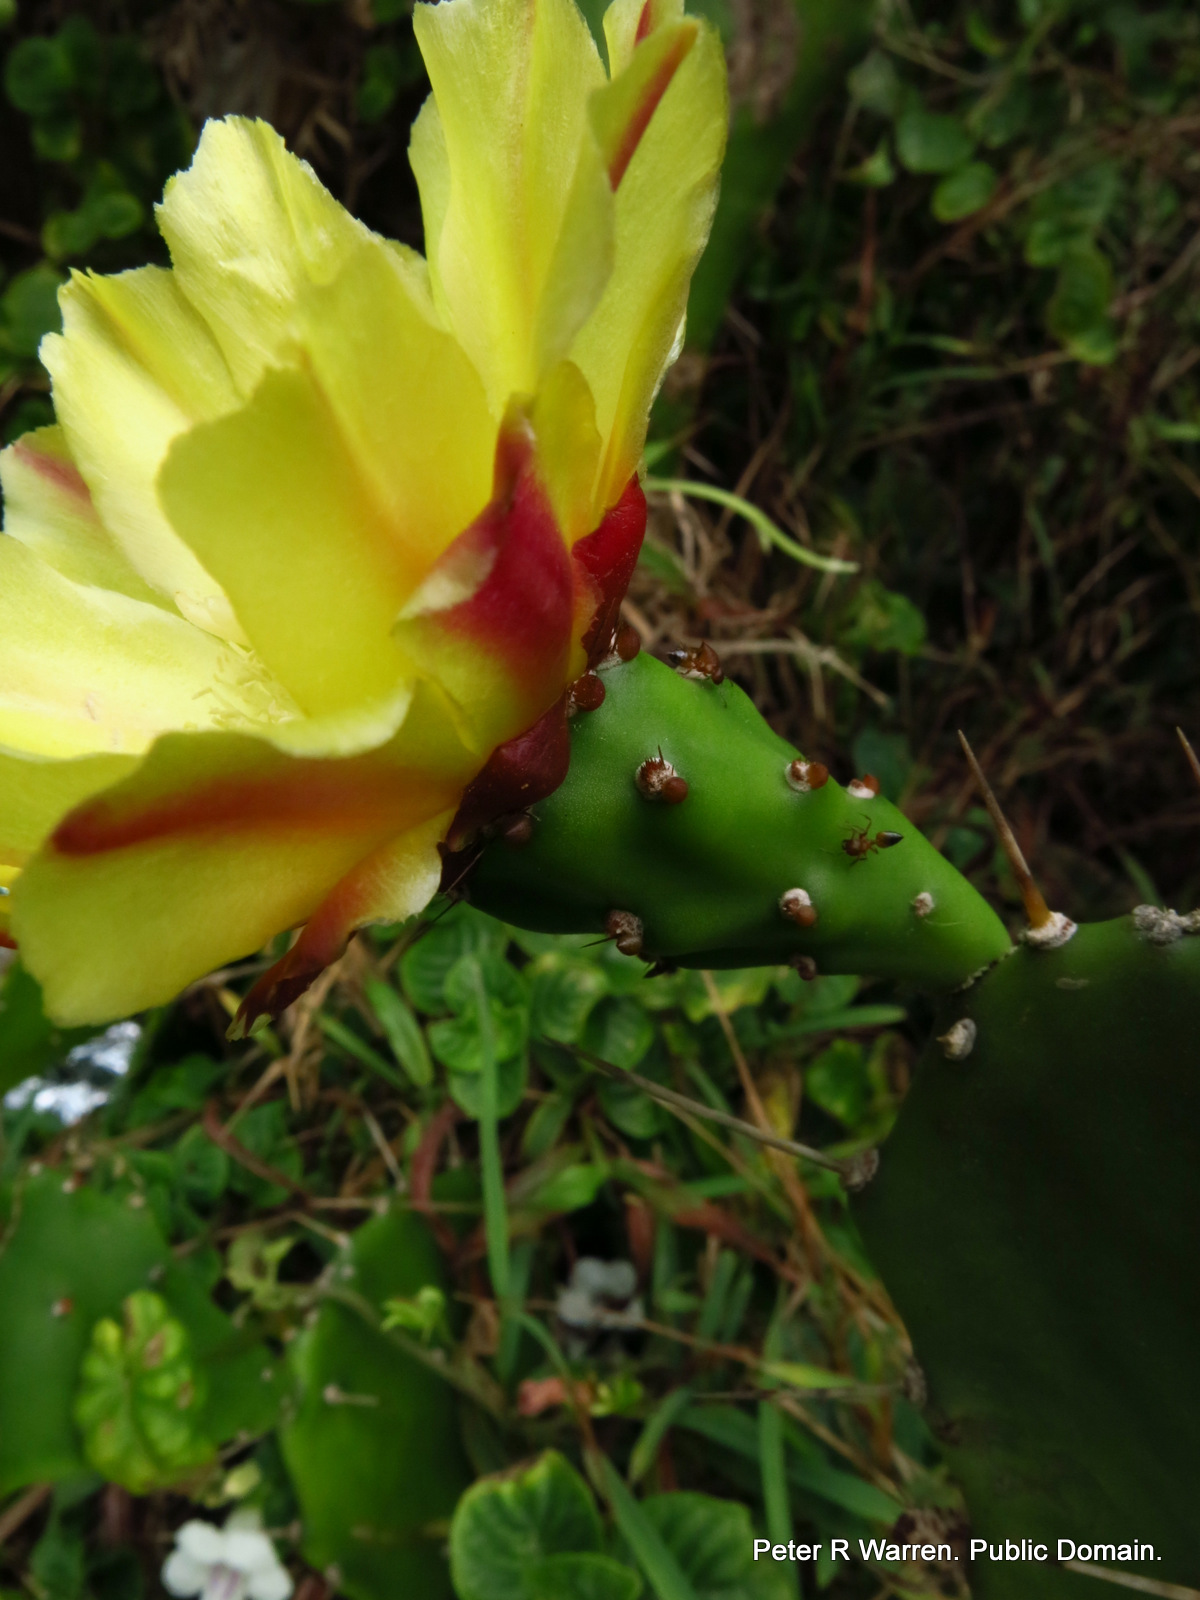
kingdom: Plantae
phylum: Tracheophyta
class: Magnoliopsida
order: Caryophyllales
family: Cactaceae
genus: Opuntia
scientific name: Opuntia monacantha
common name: Common pricklypear
